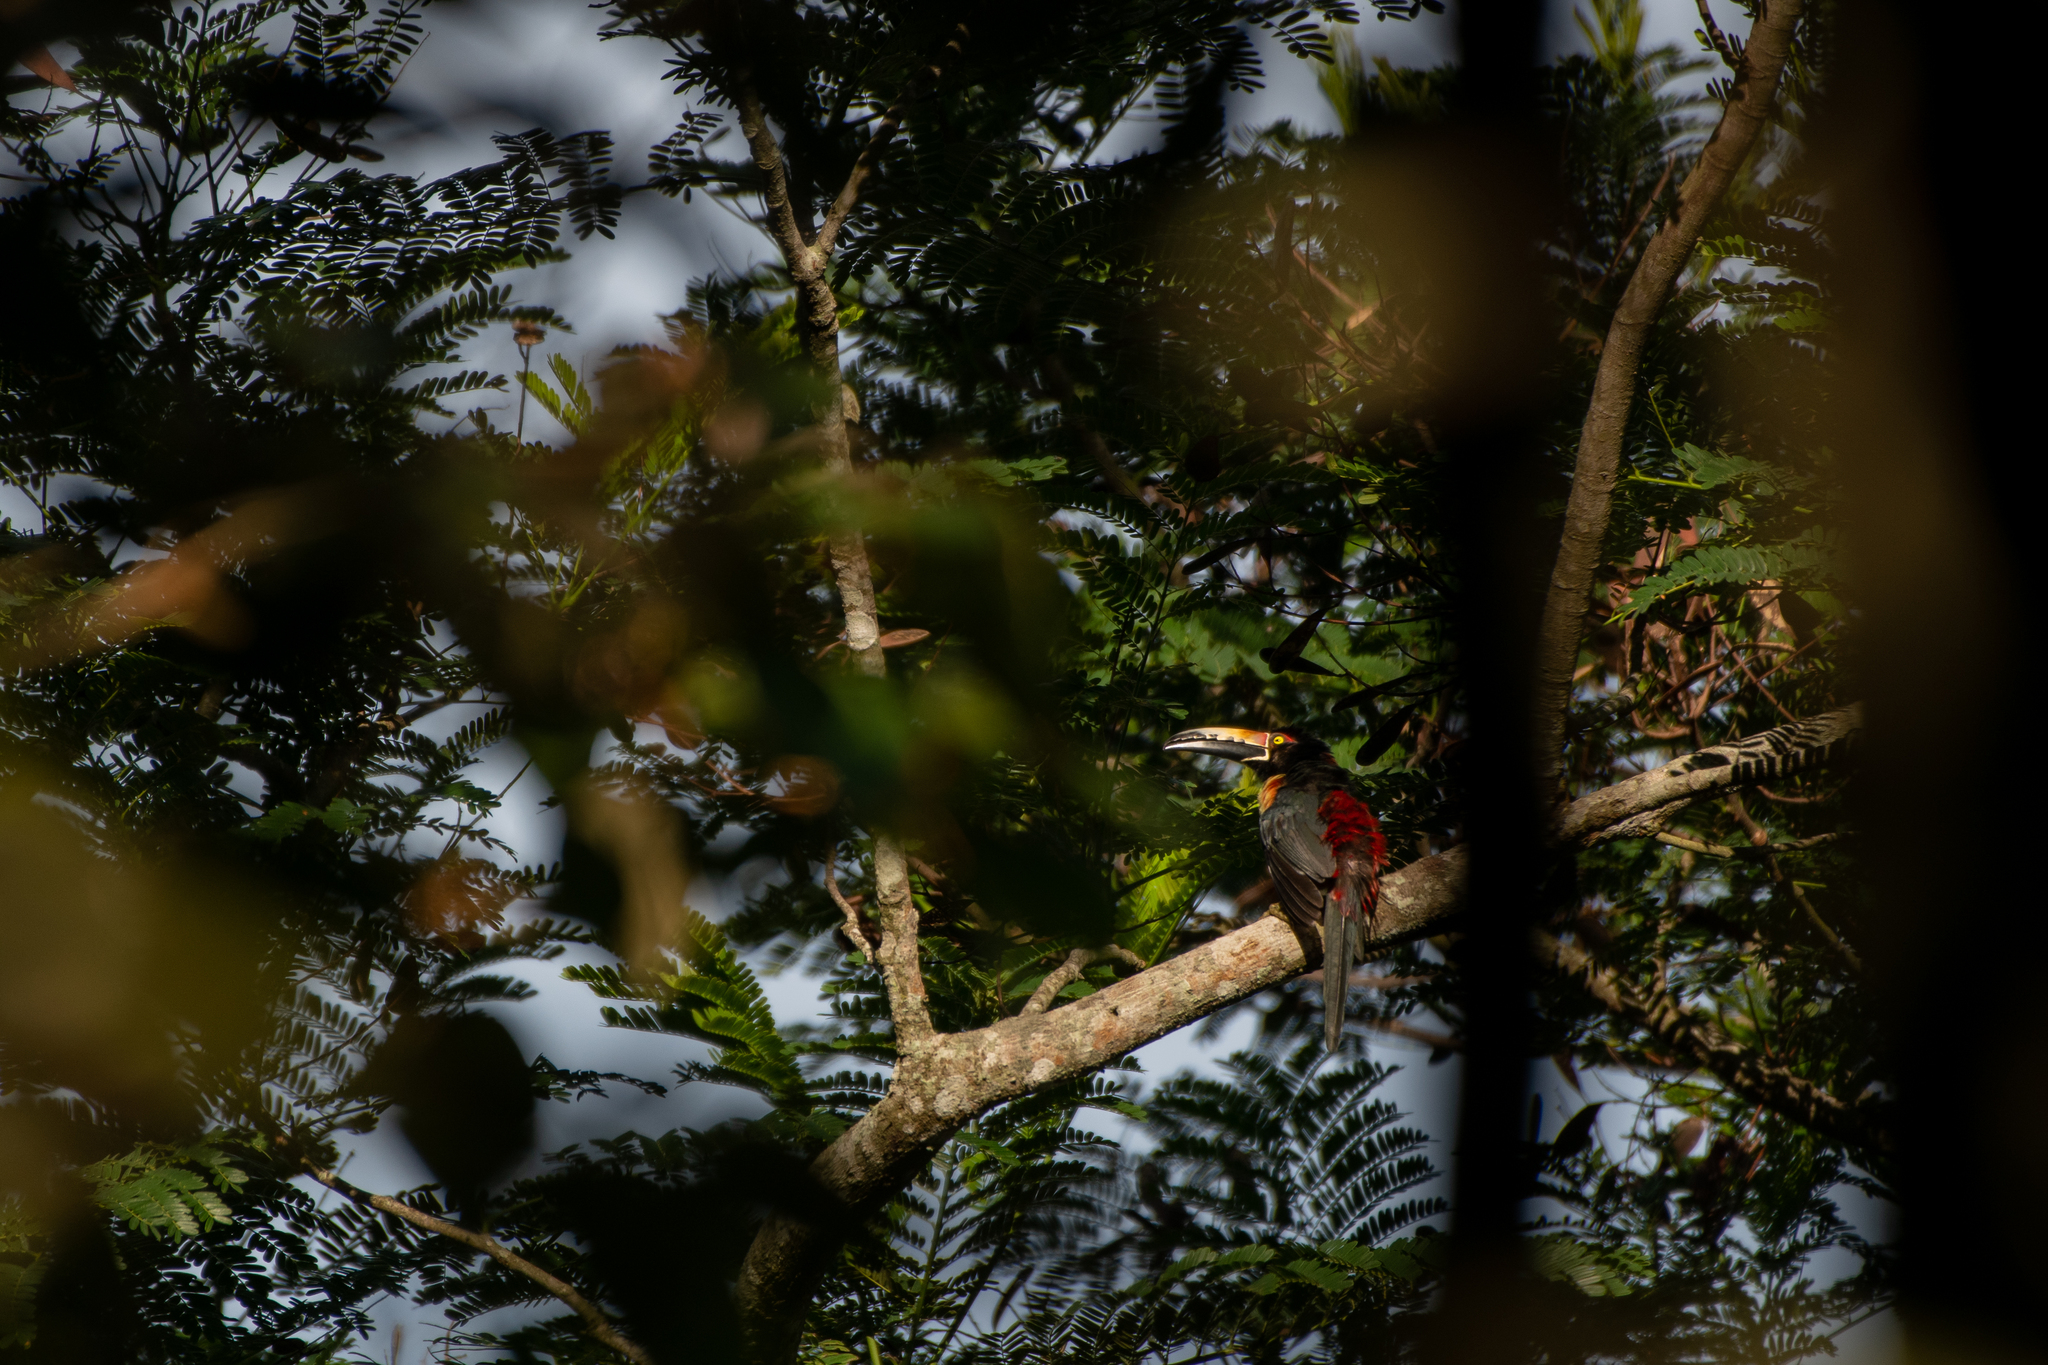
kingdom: Animalia
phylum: Chordata
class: Aves
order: Piciformes
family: Ramphastidae
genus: Pteroglossus
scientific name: Pteroglossus torquatus
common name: Collared aracari
